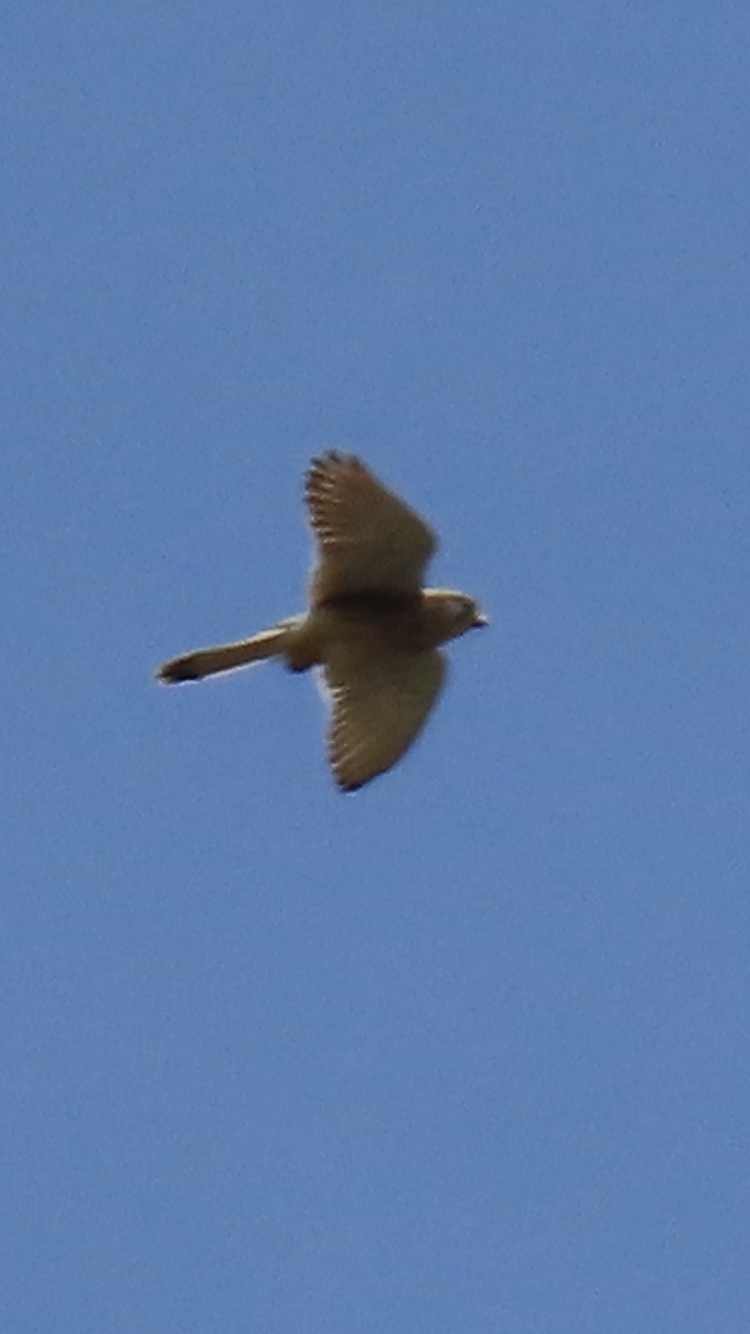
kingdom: Animalia
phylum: Chordata
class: Aves
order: Falconiformes
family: Falconidae
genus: Falco
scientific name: Falco tinnunculus
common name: Common kestrel
